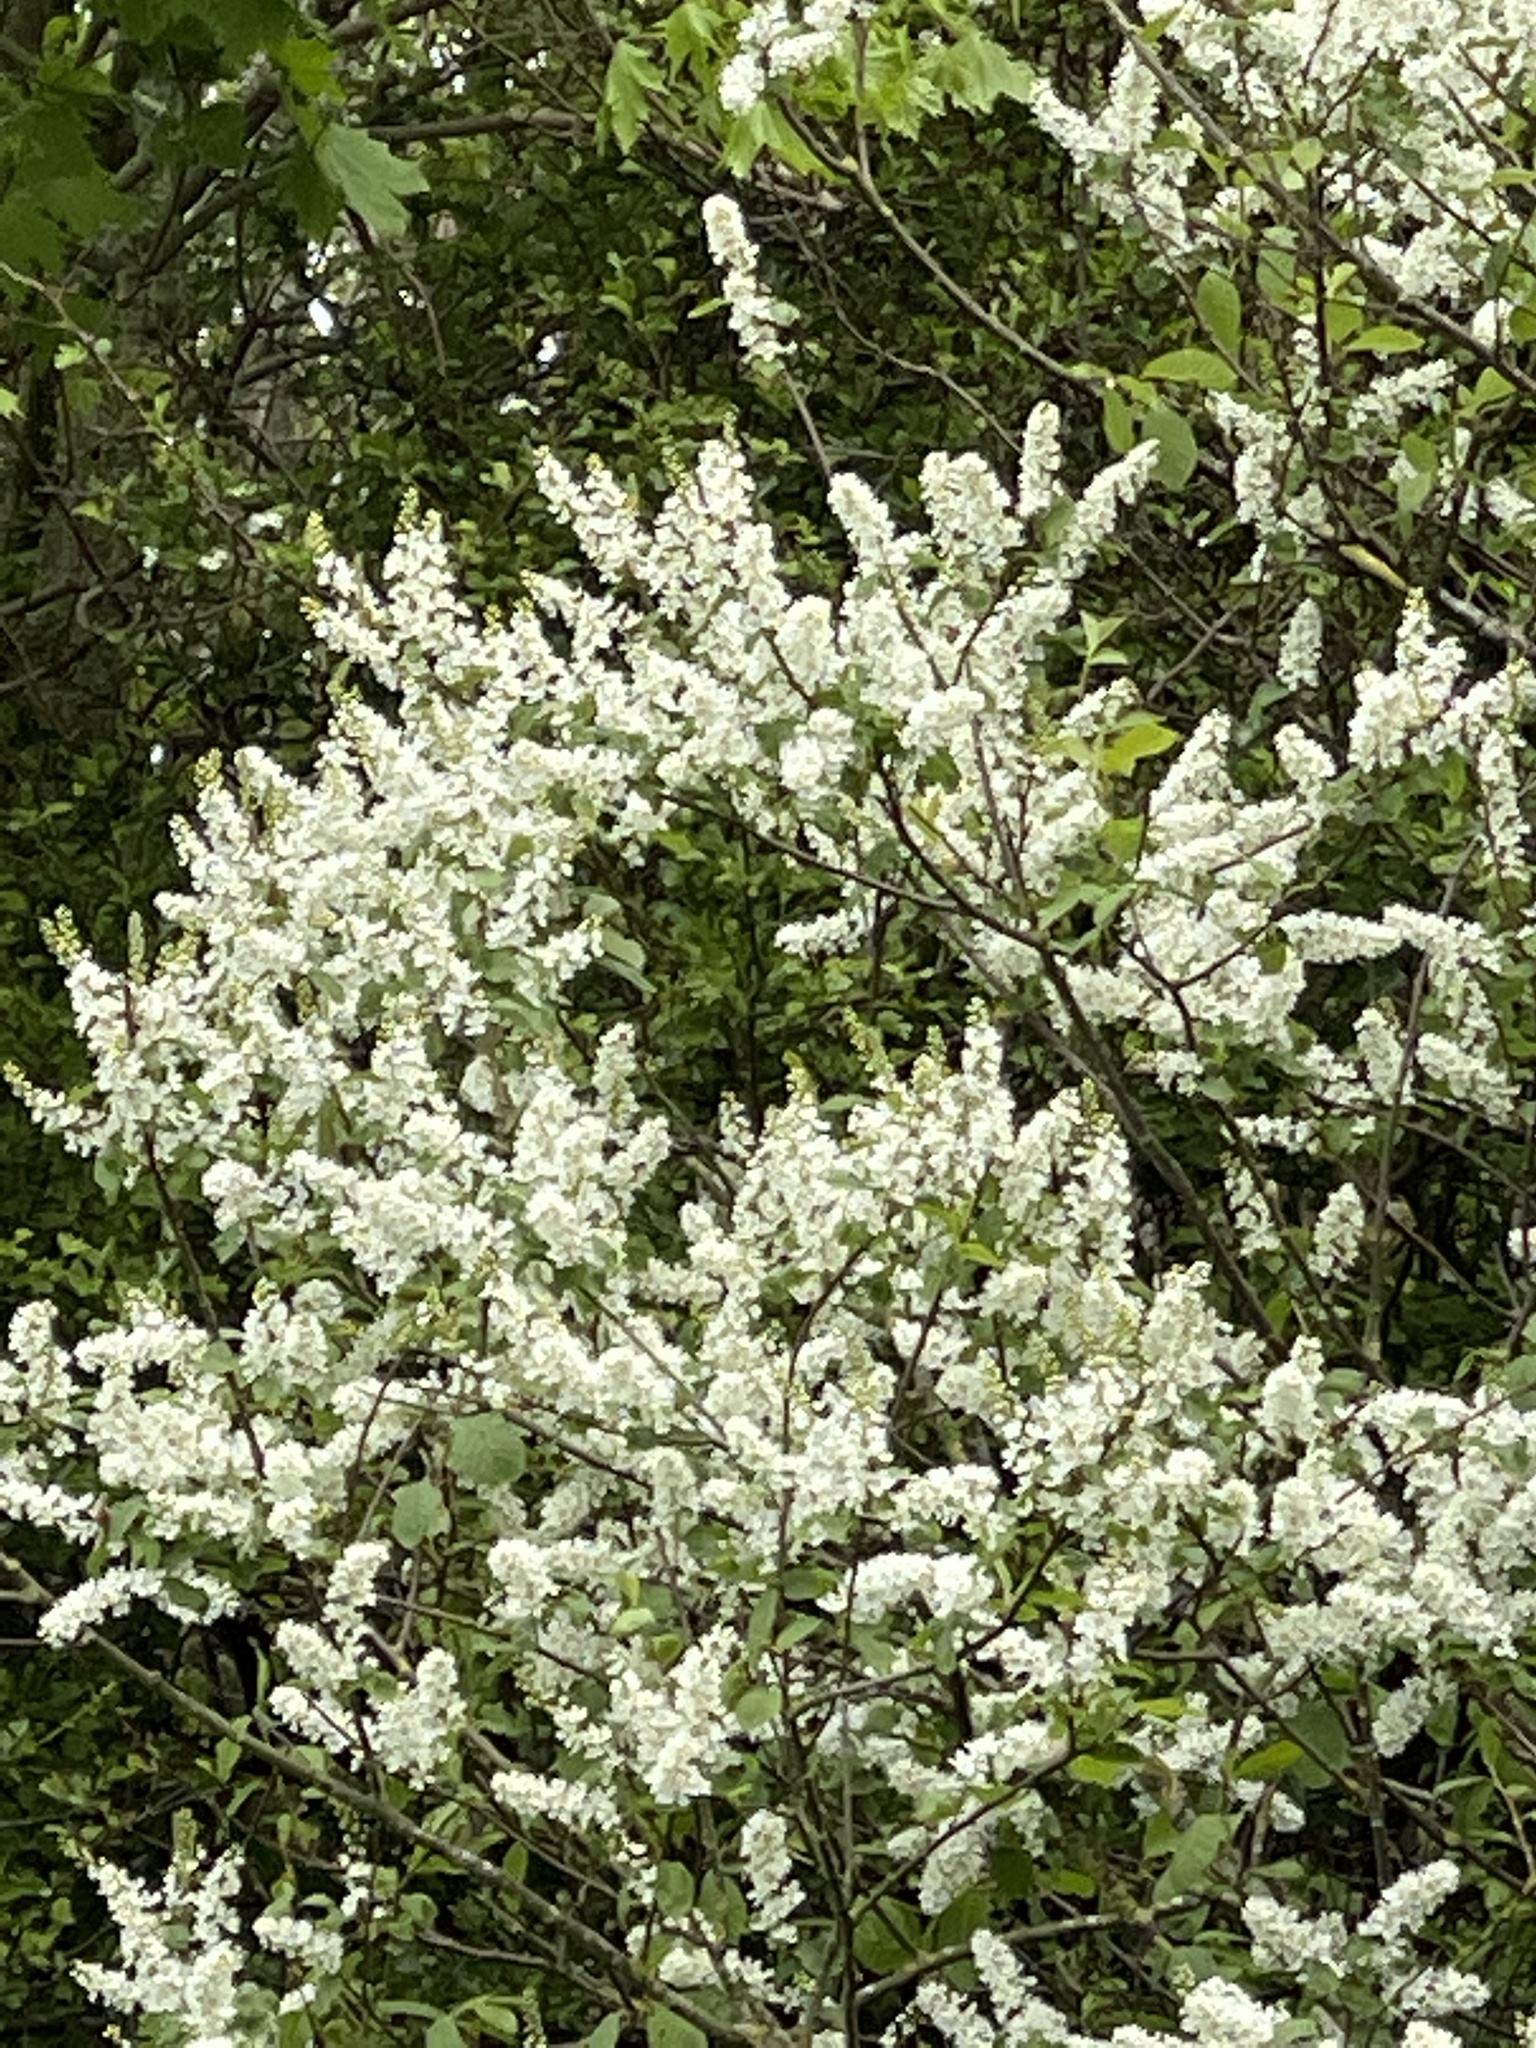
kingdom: Plantae
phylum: Tracheophyta
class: Magnoliopsida
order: Rosales
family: Rosaceae
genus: Prunus
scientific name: Prunus padus
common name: Bird cherry
